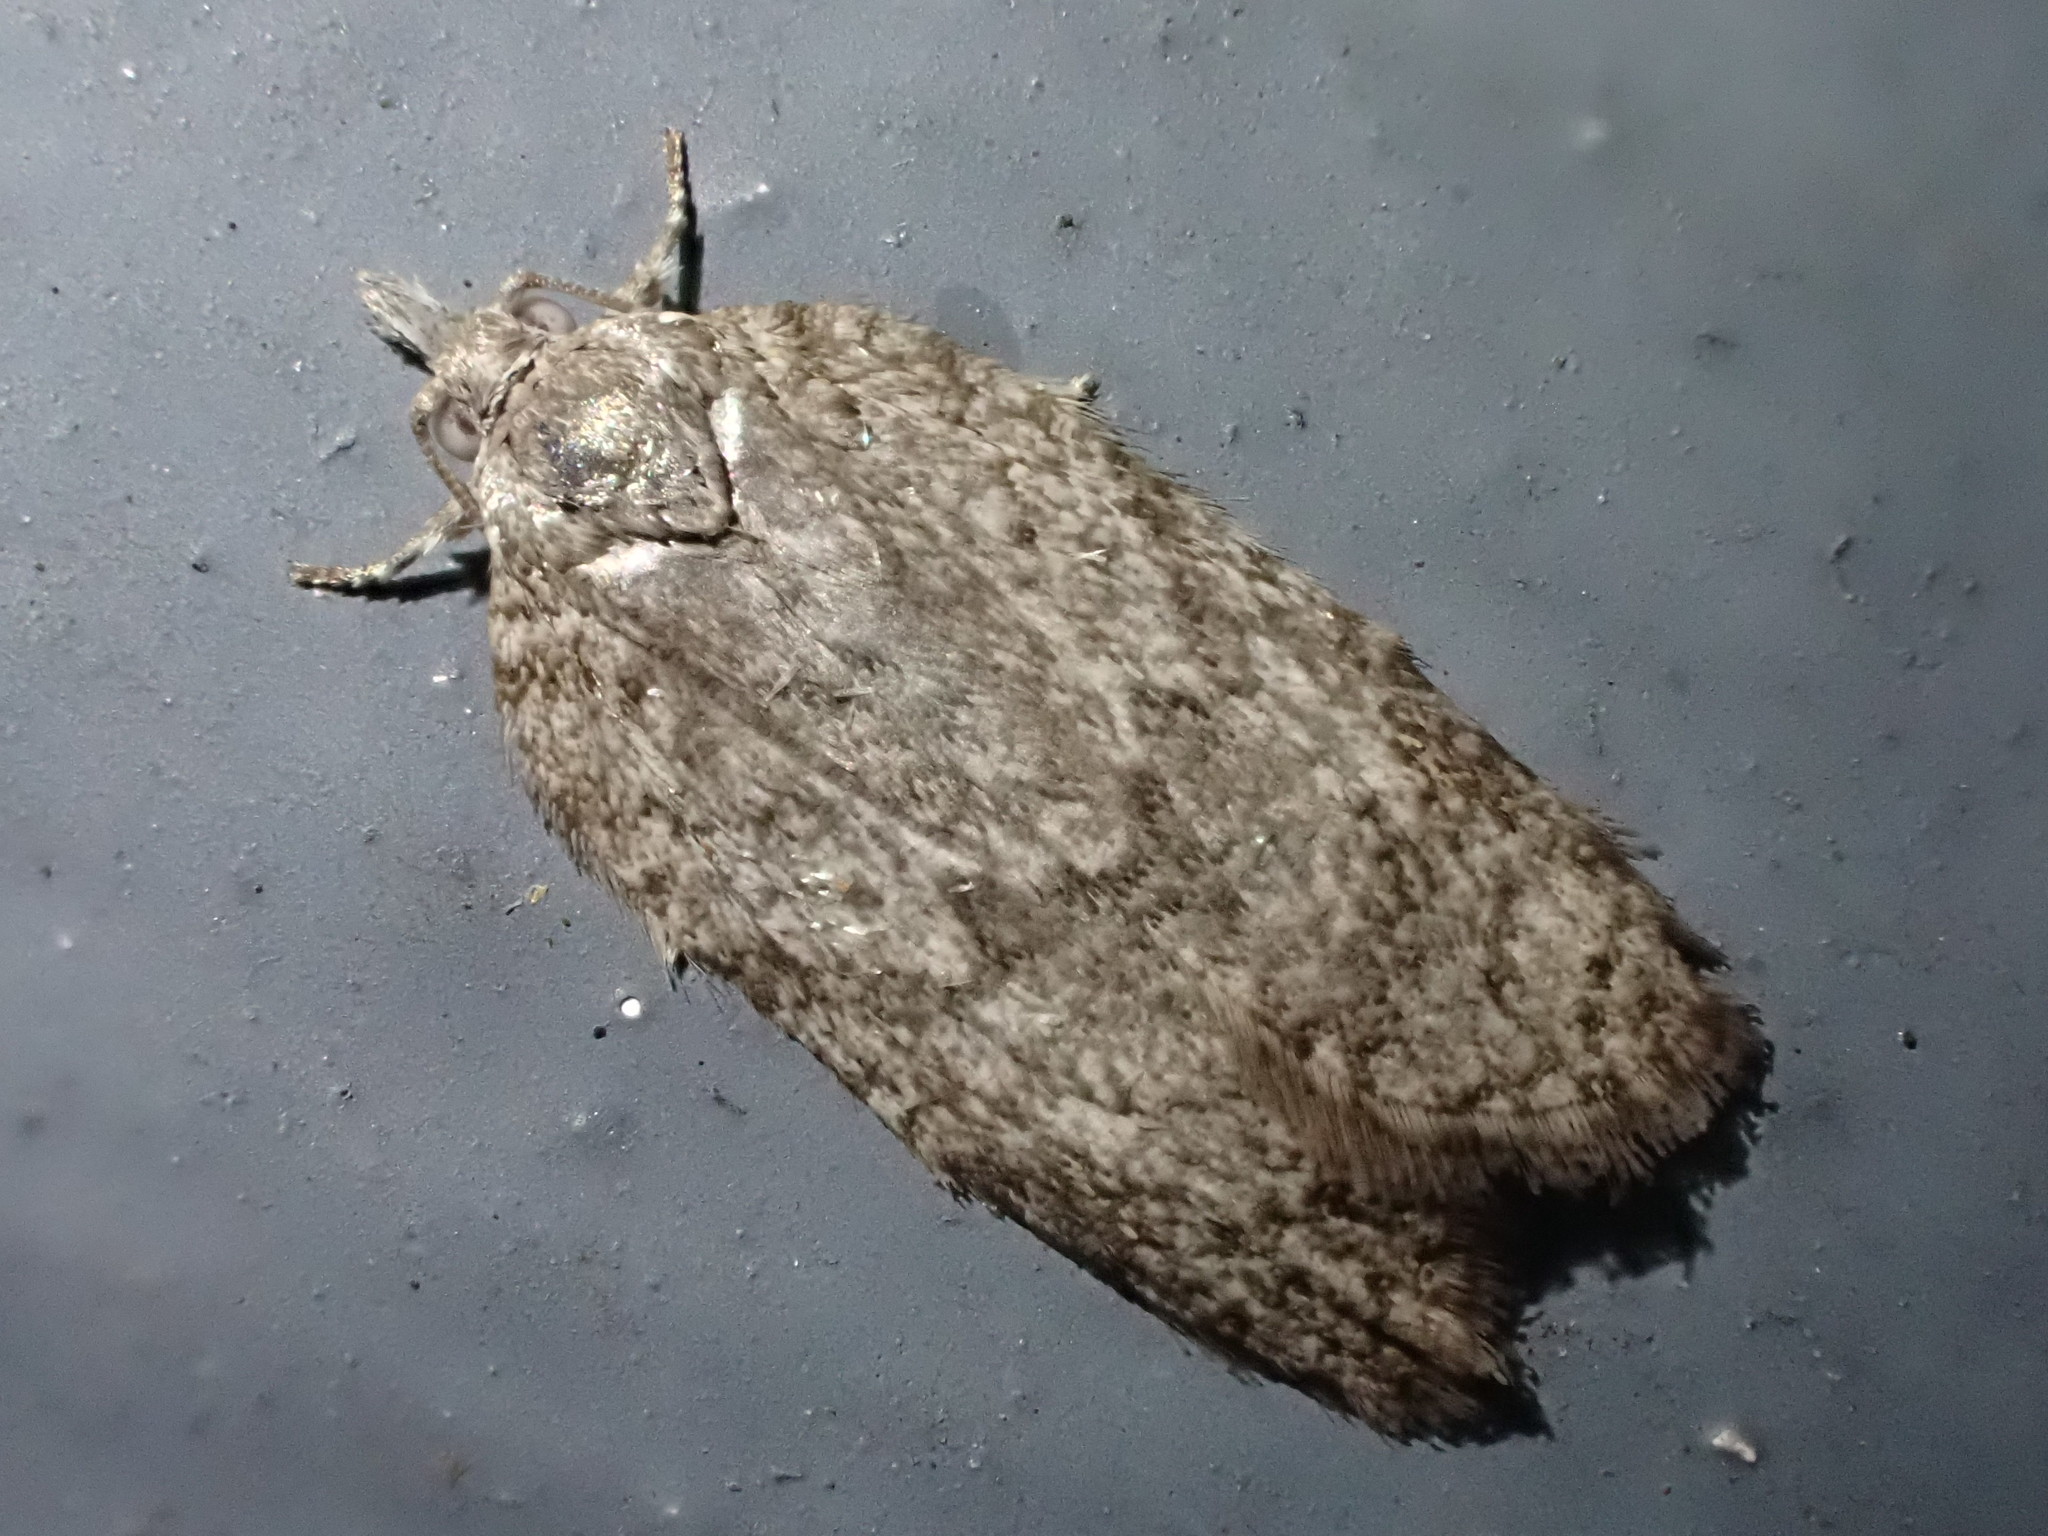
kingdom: Animalia
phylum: Arthropoda
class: Insecta
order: Lepidoptera
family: Tortricidae
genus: Isotenes
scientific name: Isotenes miserana
